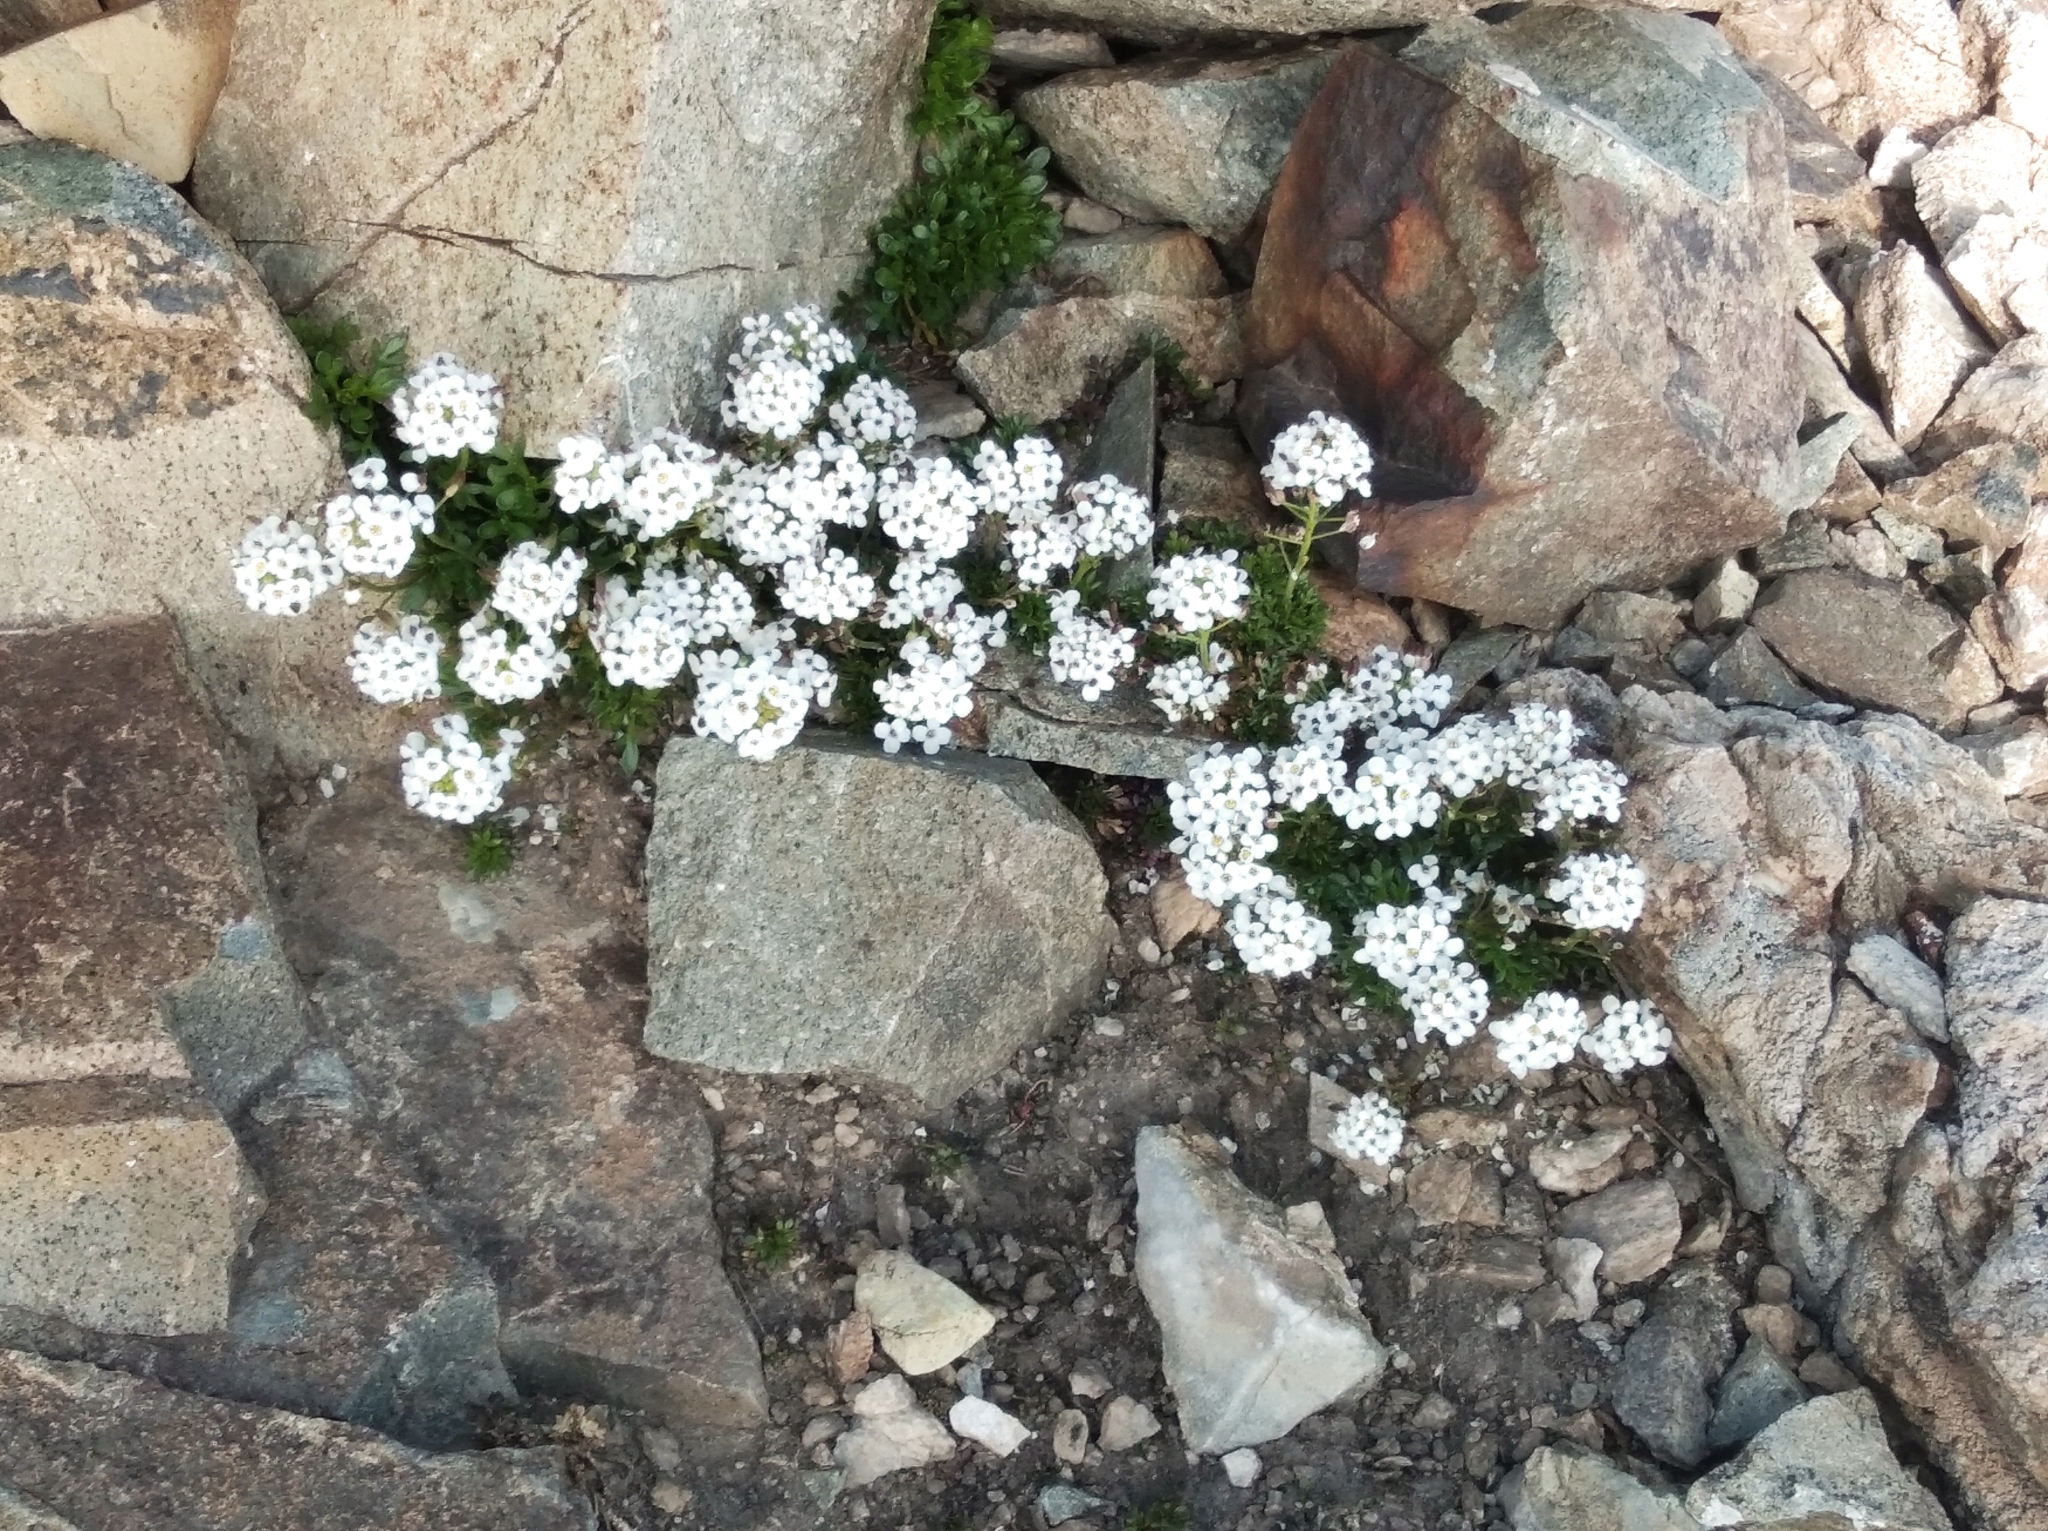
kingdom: Plantae
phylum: Tracheophyta
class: Magnoliopsida
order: Brassicales
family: Brassicaceae
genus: Hornungia
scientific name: Hornungia alpina
